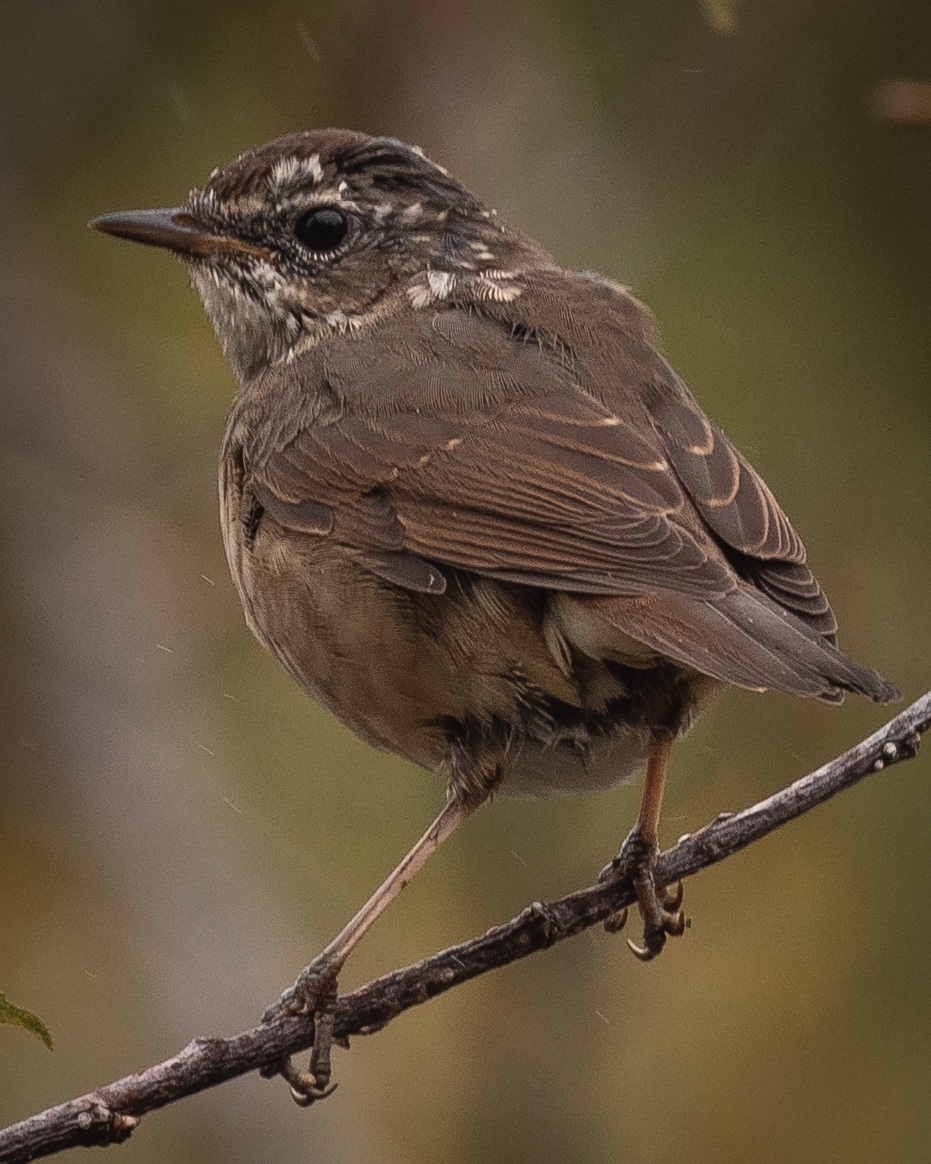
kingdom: Animalia
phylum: Chordata
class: Aves
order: Passeriformes
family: Muscicapidae
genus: Luscinia
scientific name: Luscinia calliope
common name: Siberian rubythroat
